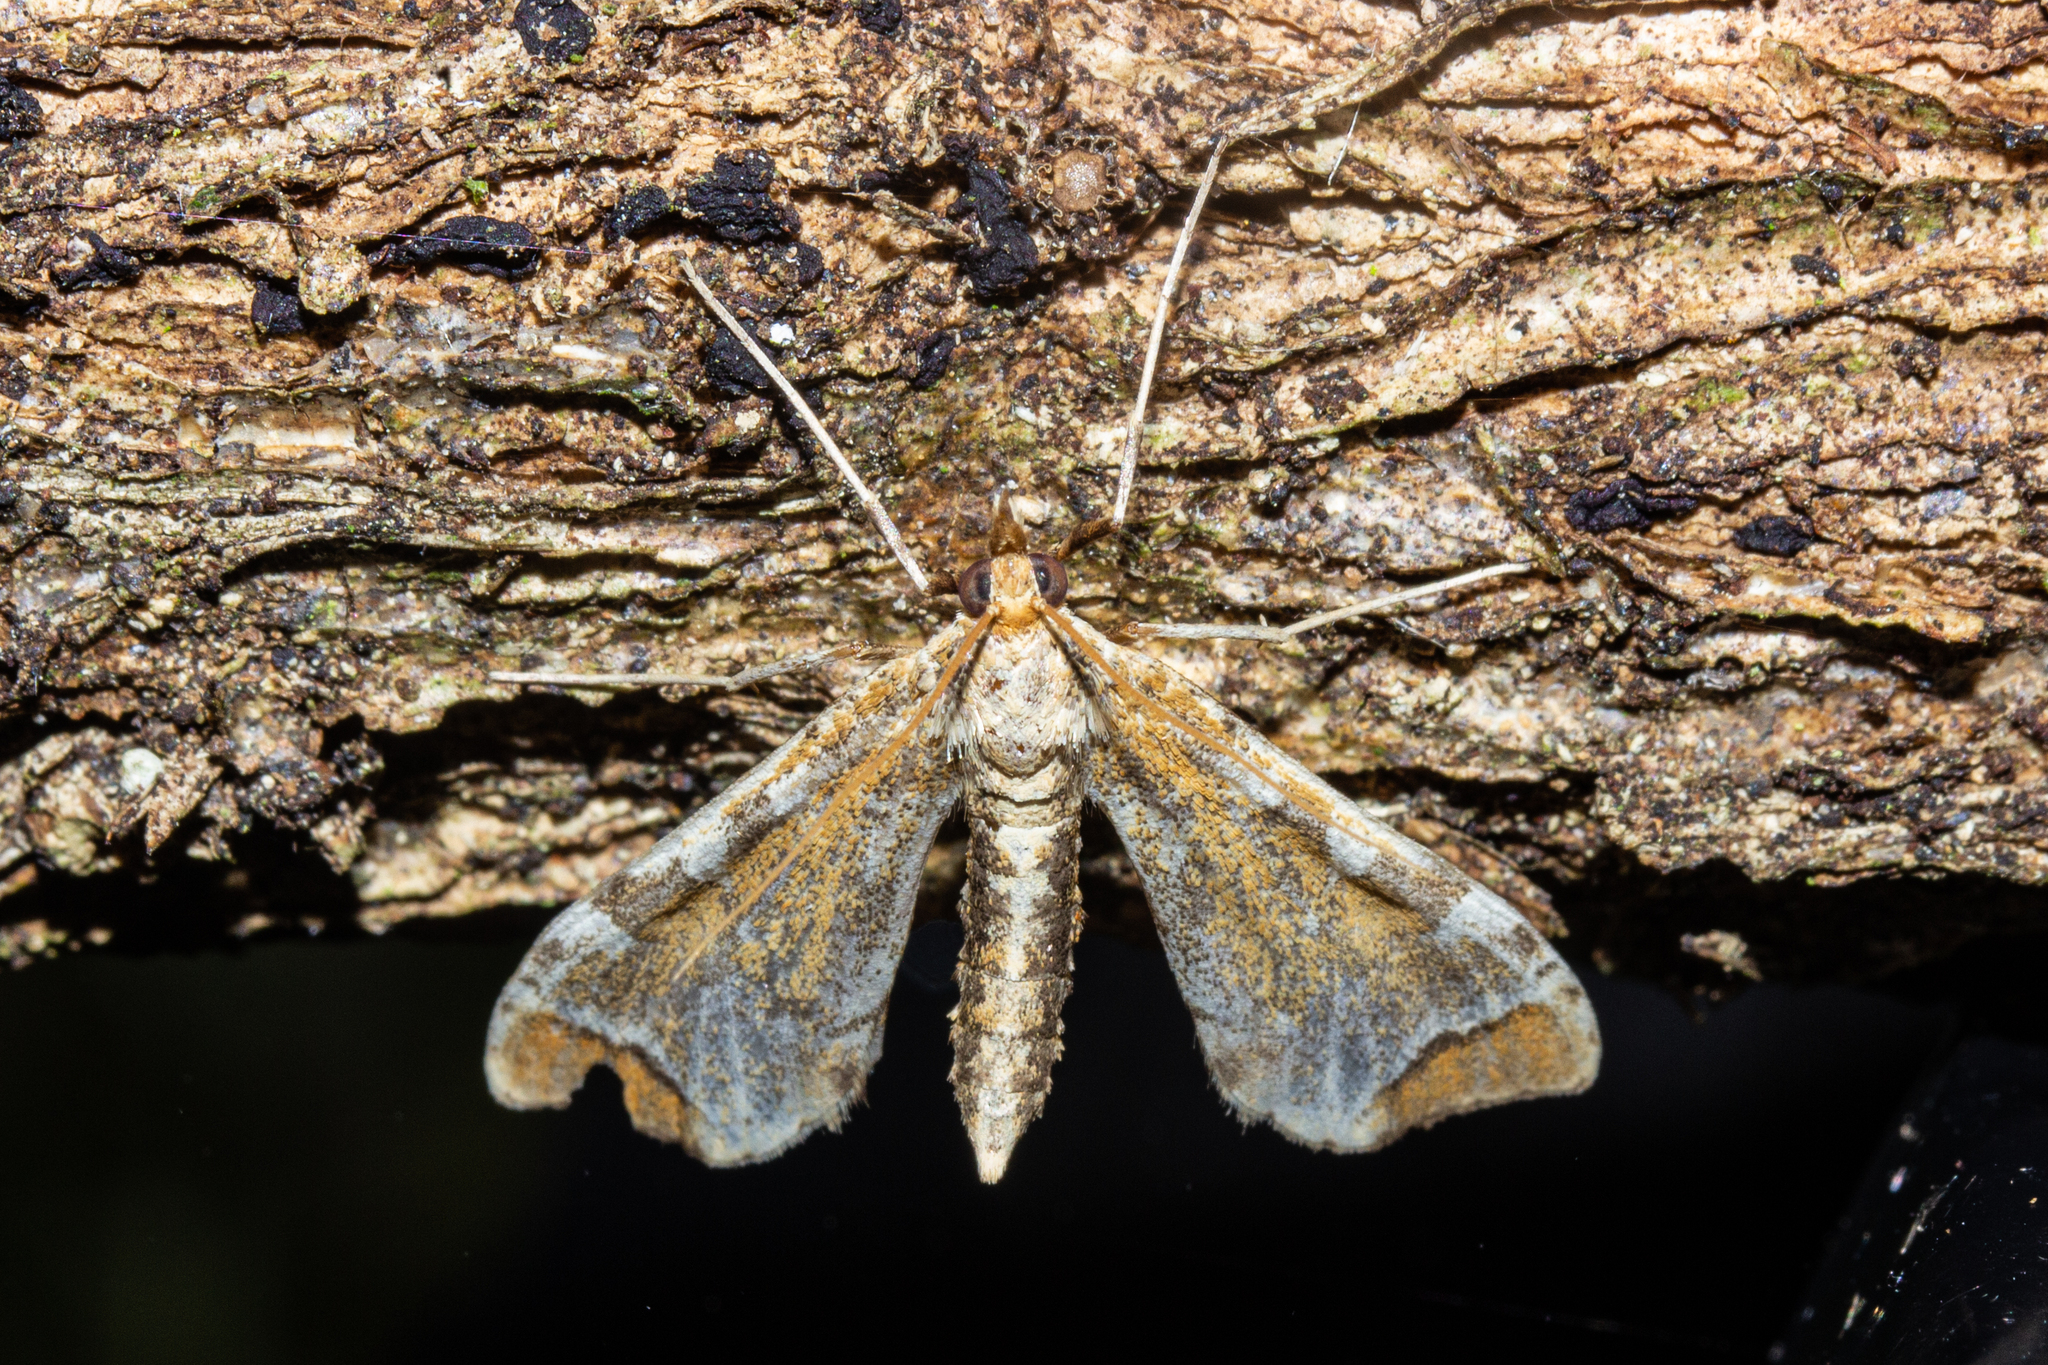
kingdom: Animalia
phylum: Arthropoda
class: Insecta
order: Lepidoptera
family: Crambidae
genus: Sceliodes
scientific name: Sceliodes cordalis
